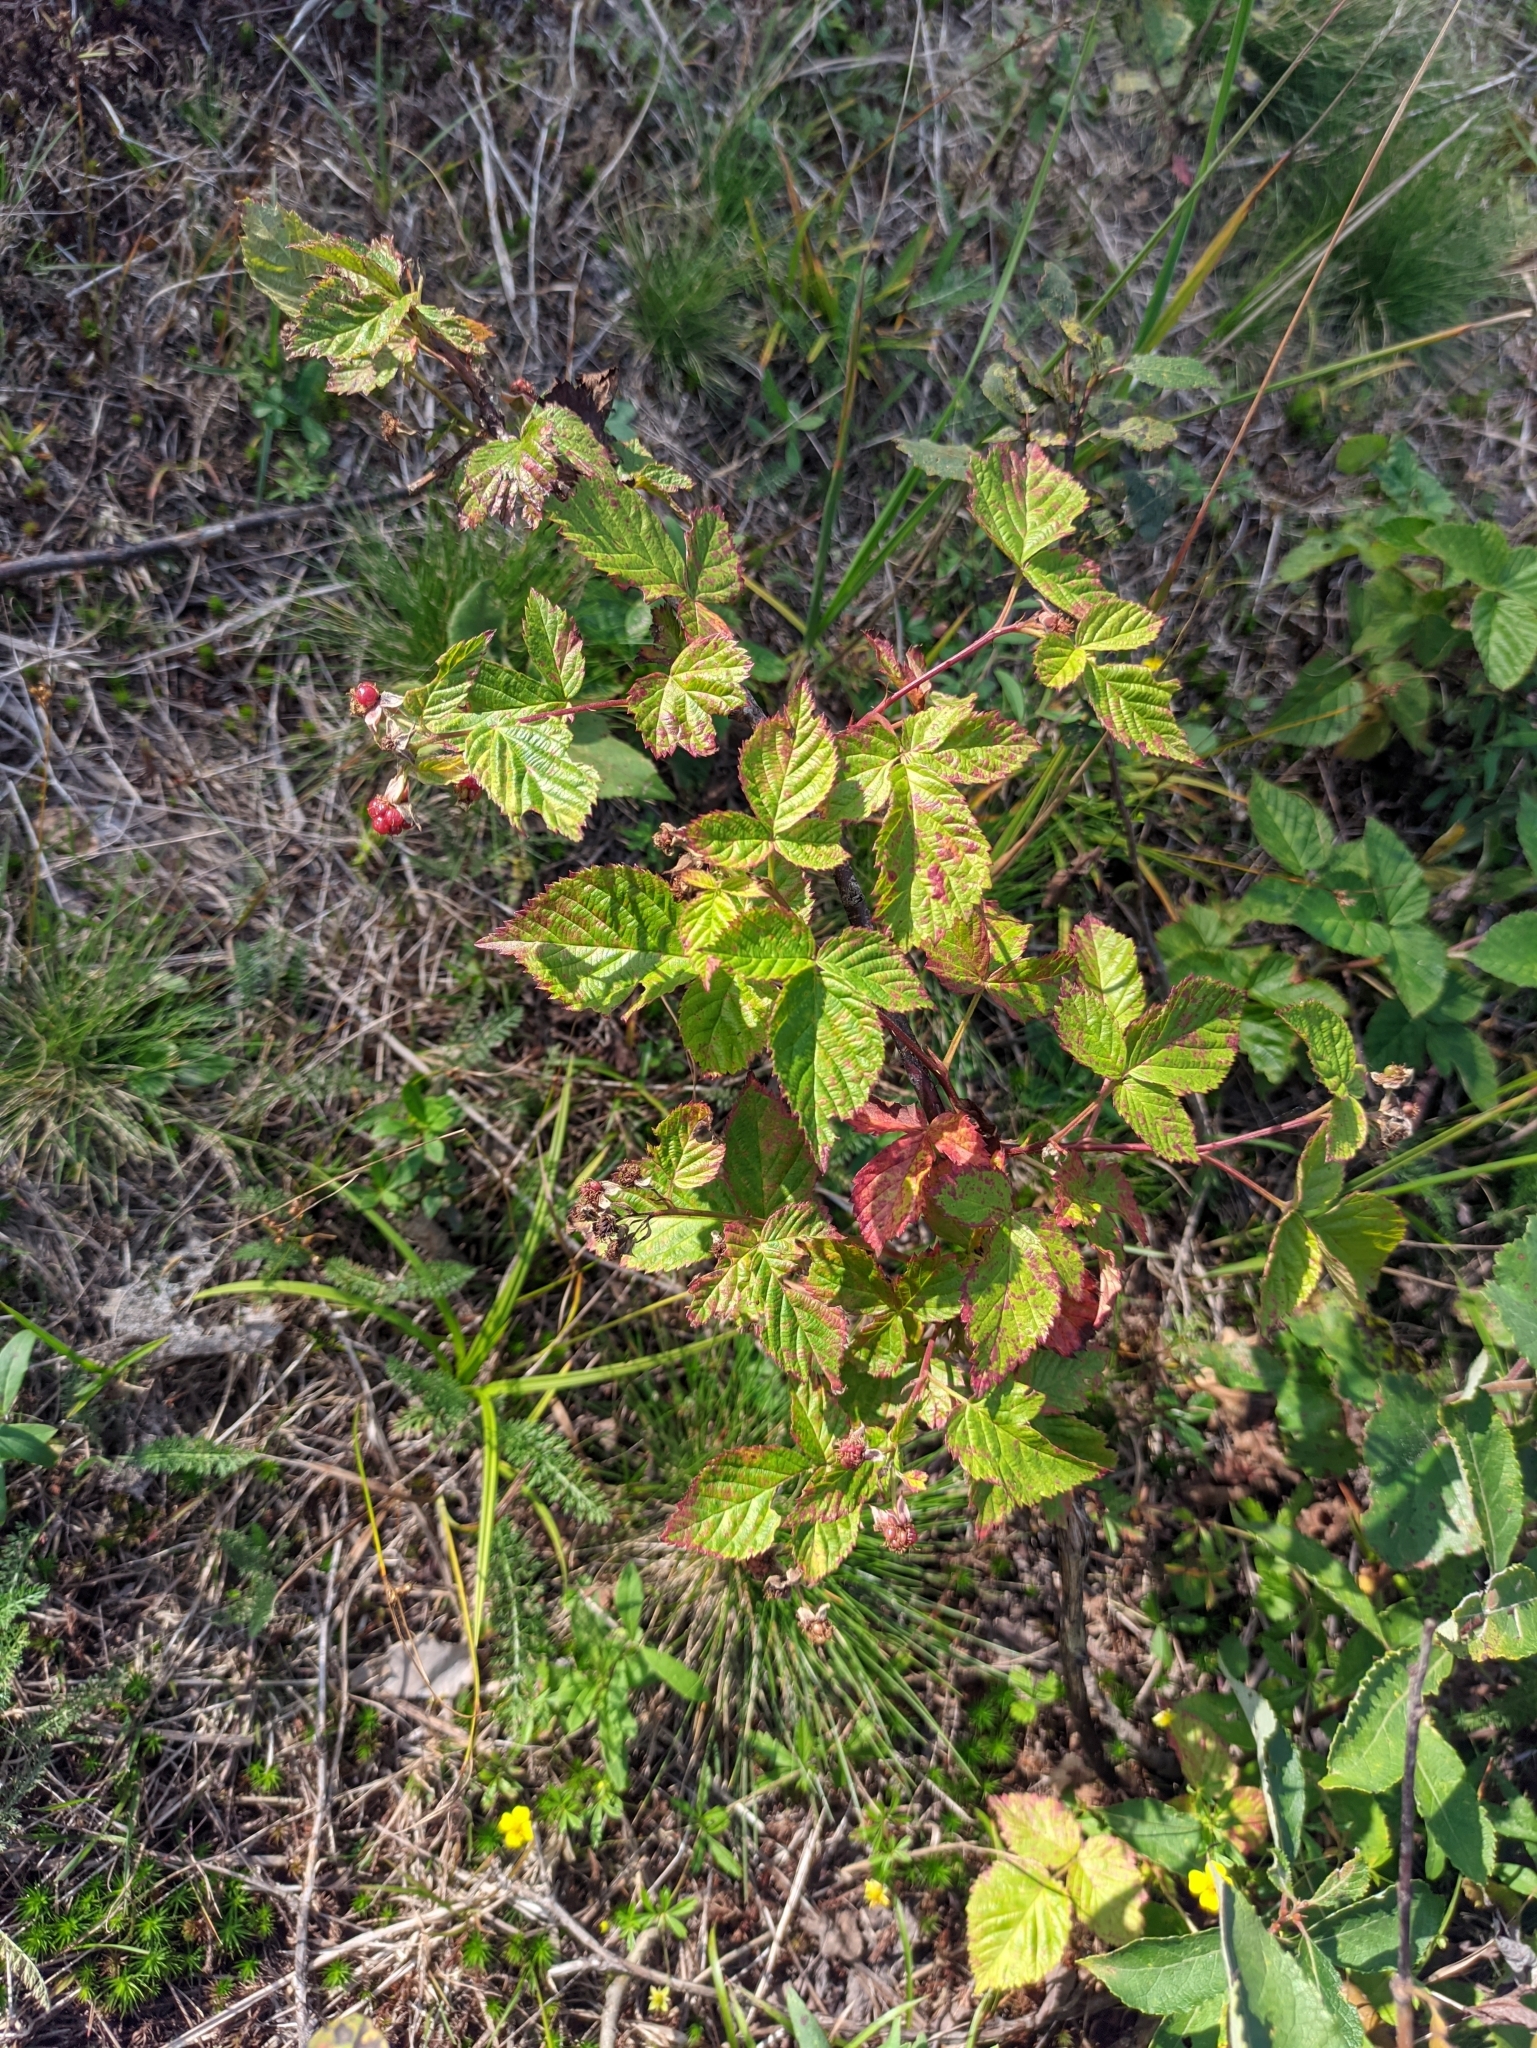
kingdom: Plantae
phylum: Tracheophyta
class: Magnoliopsida
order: Rosales
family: Rosaceae
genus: Rubus
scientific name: Rubus polonicus
